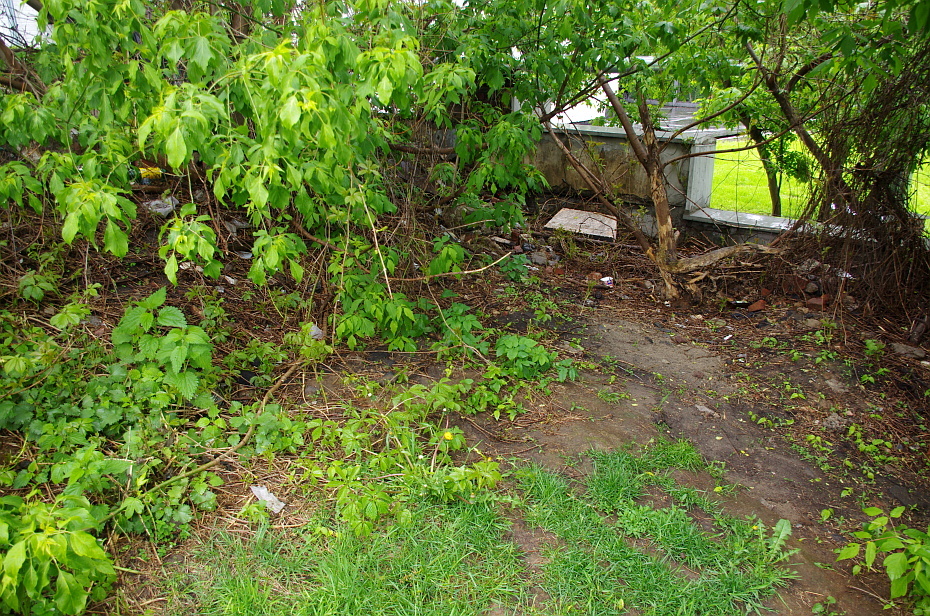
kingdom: Plantae
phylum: Tracheophyta
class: Magnoliopsida
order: Vitales
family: Vitaceae
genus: Parthenocissus
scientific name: Parthenocissus inserta
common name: False virginia-creeper
